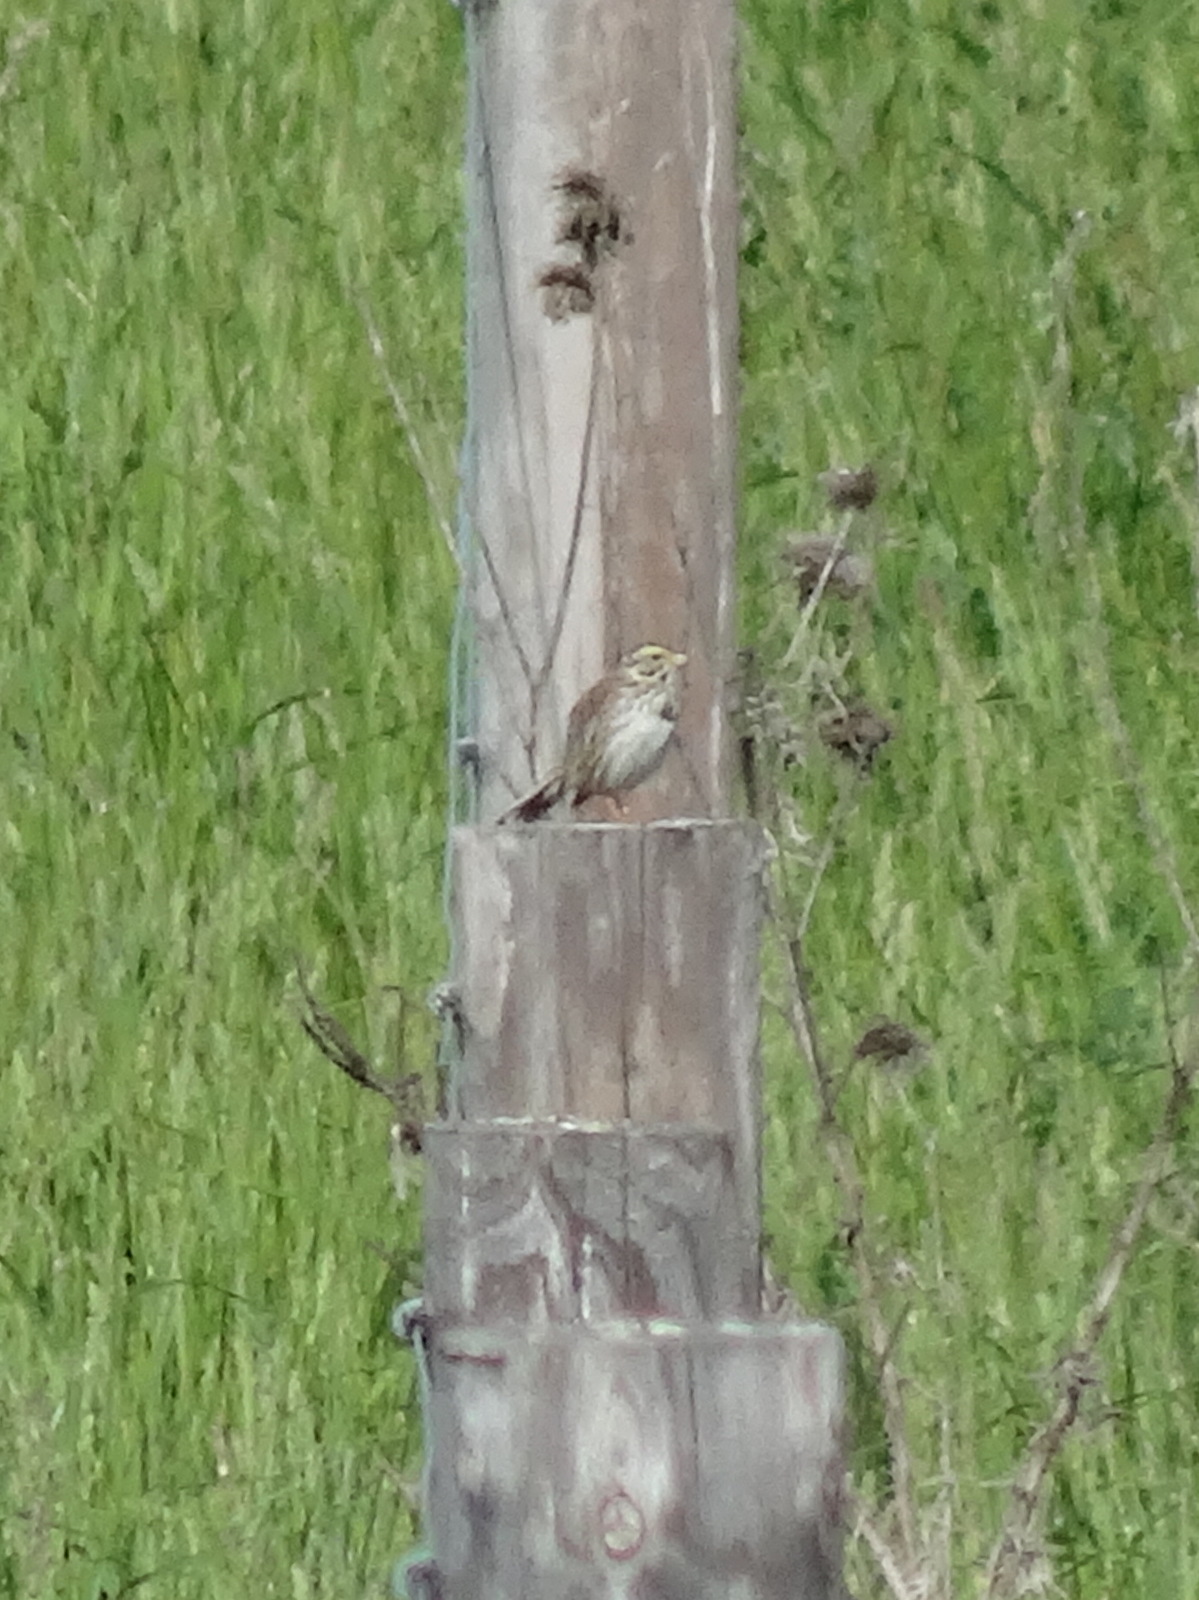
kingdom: Animalia
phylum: Chordata
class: Aves
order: Passeriformes
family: Passerellidae
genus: Passerculus
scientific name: Passerculus sandwichensis
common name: Savannah sparrow
